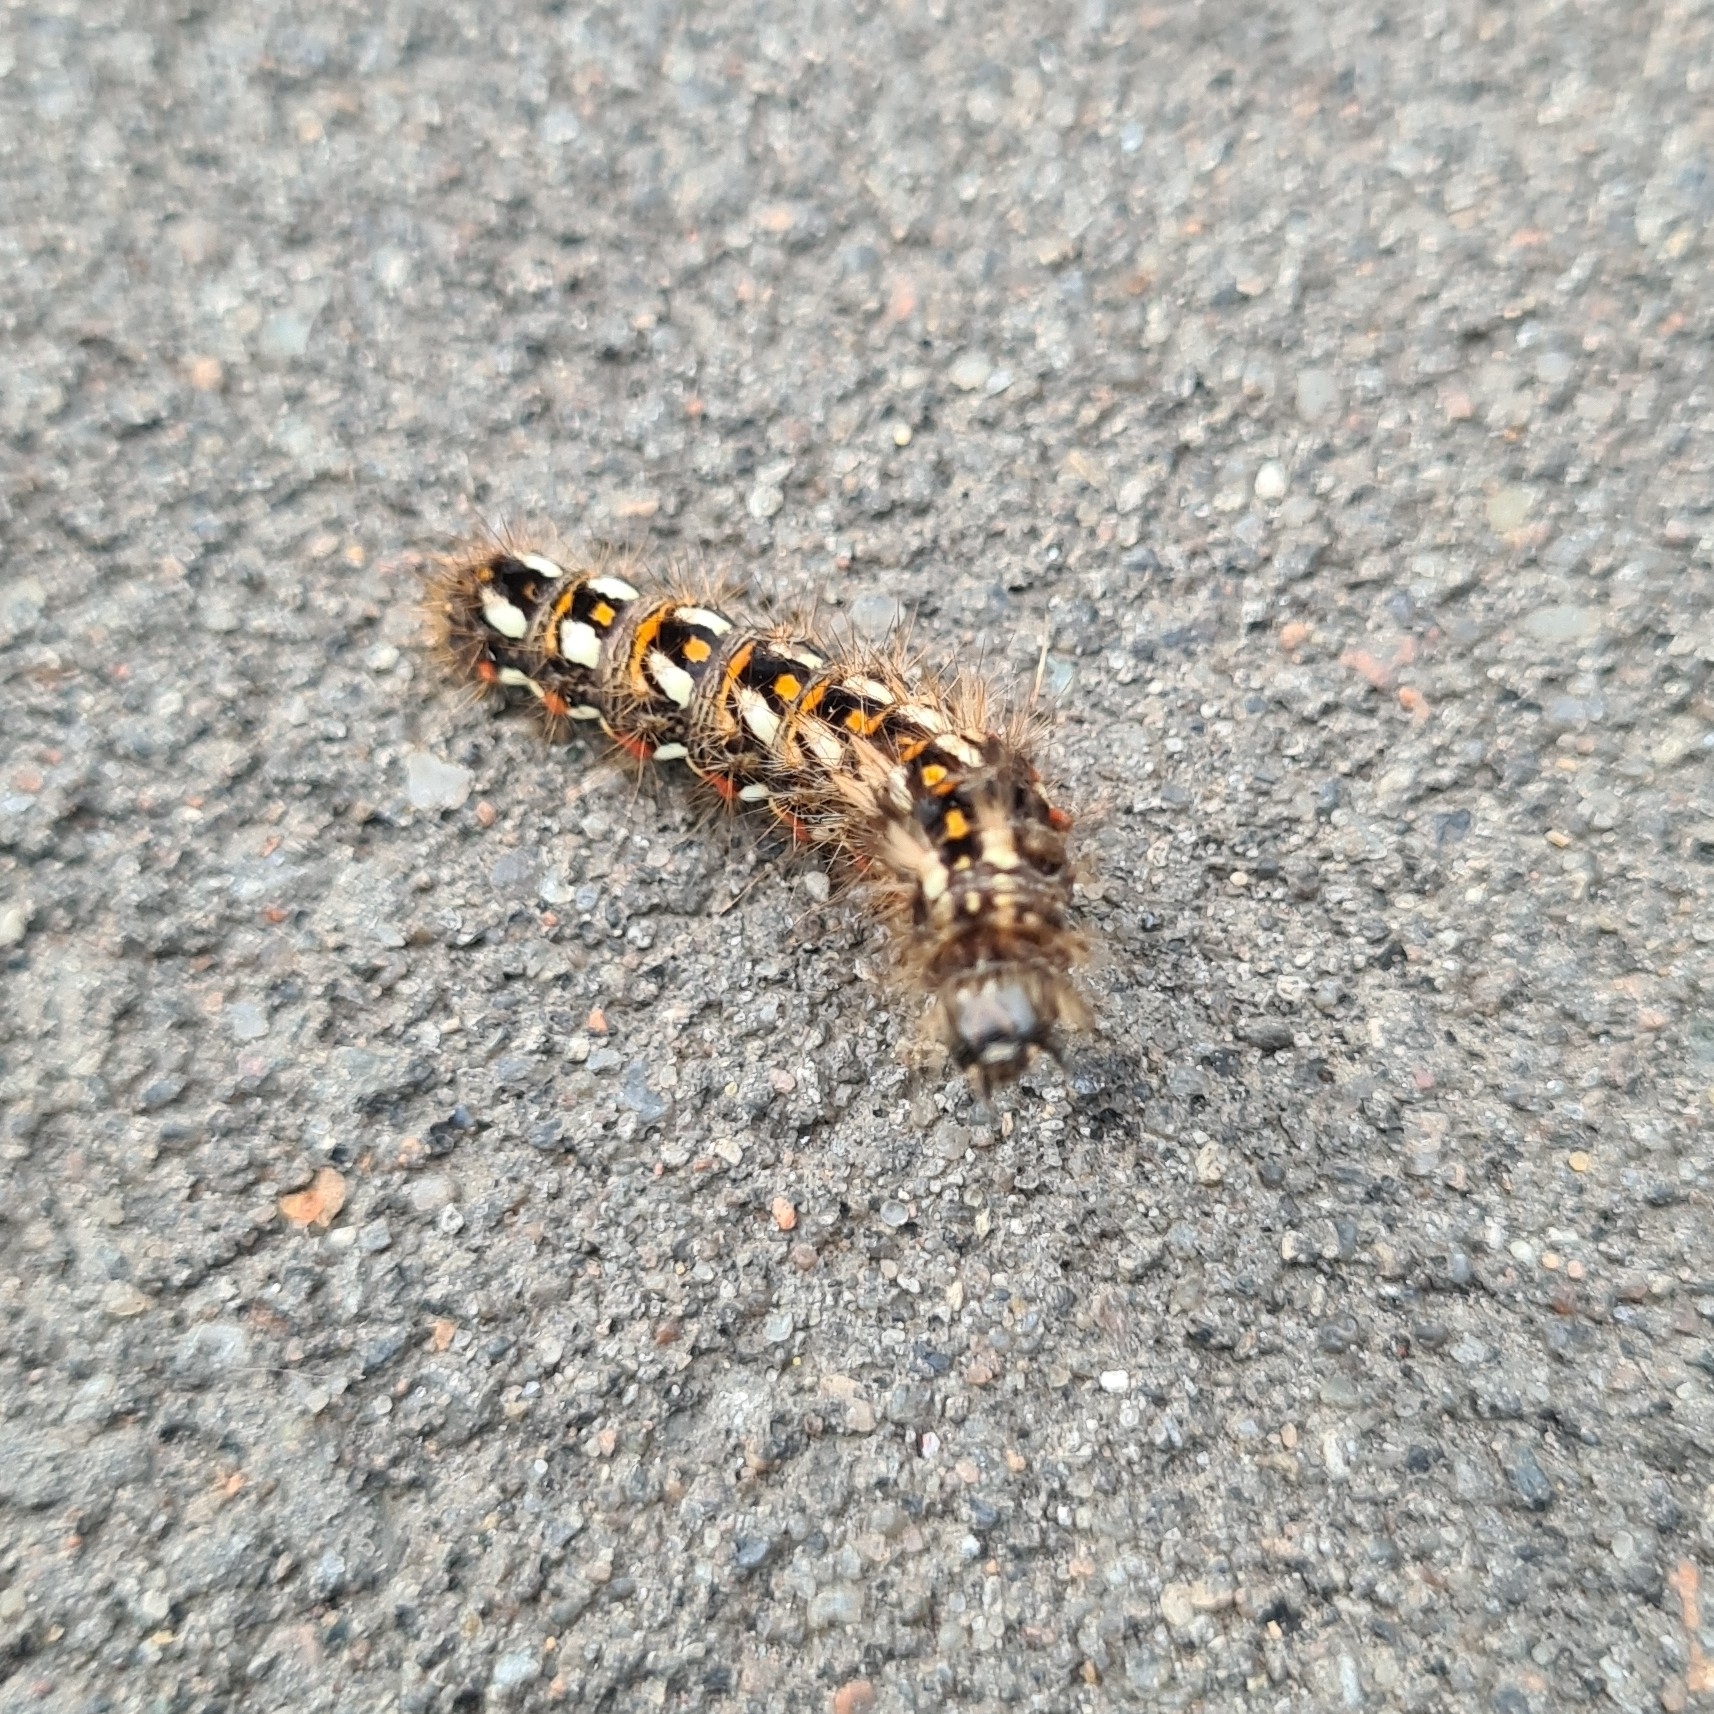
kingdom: Animalia
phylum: Arthropoda
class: Insecta
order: Lepidoptera
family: Noctuidae
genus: Acronicta
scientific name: Acronicta rumicis
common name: Knot grass
